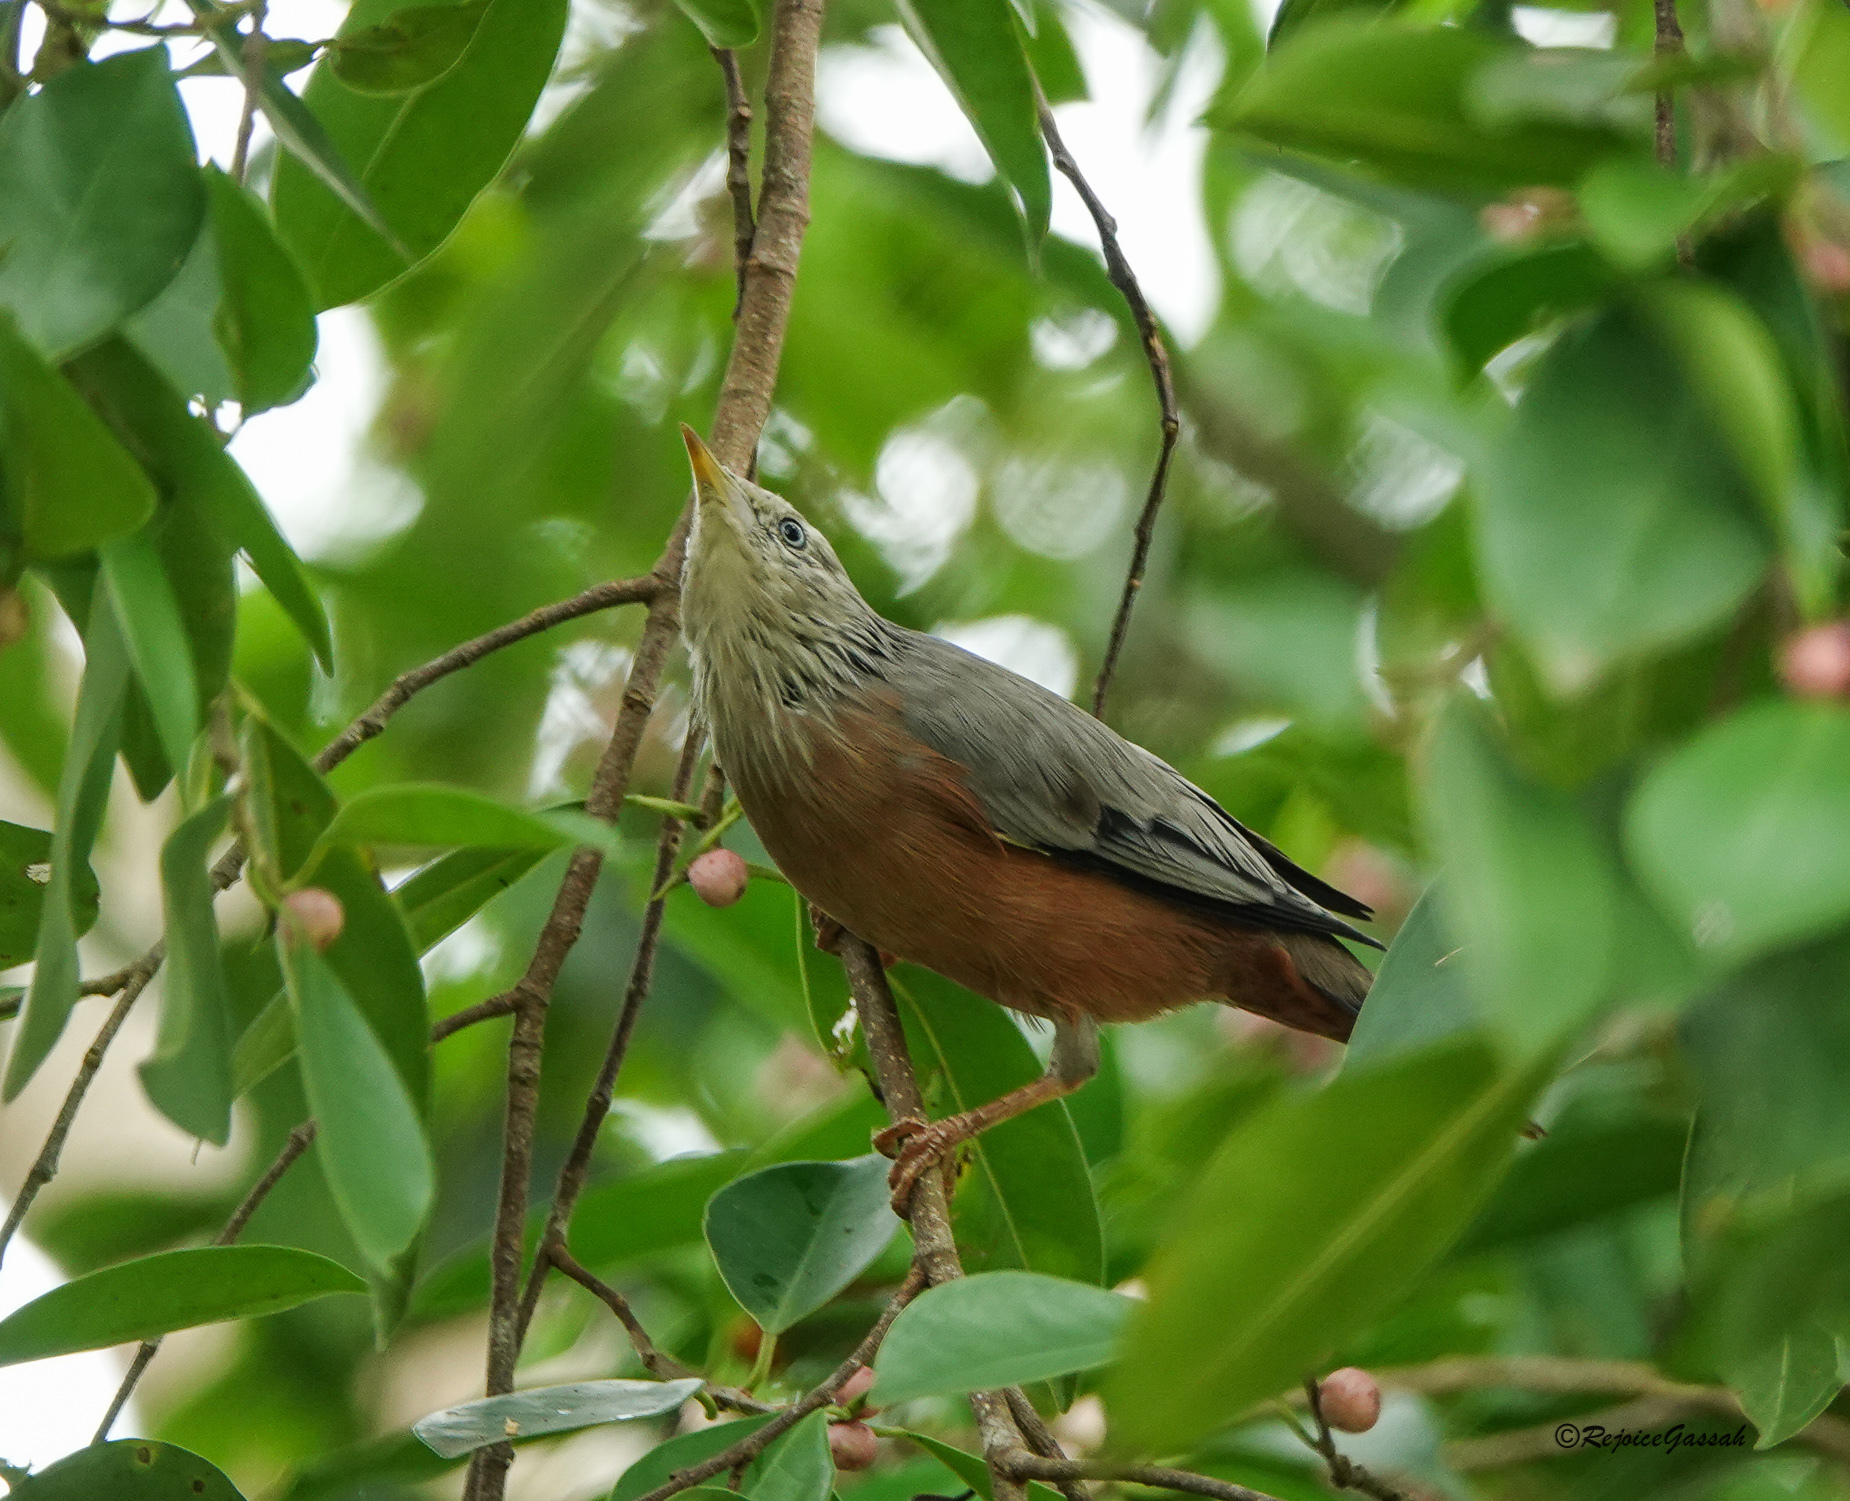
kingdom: Animalia
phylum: Chordata
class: Aves
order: Passeriformes
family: Sturnidae
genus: Sturnia
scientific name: Sturnia malabarica
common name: Chestnut-tailed starling
